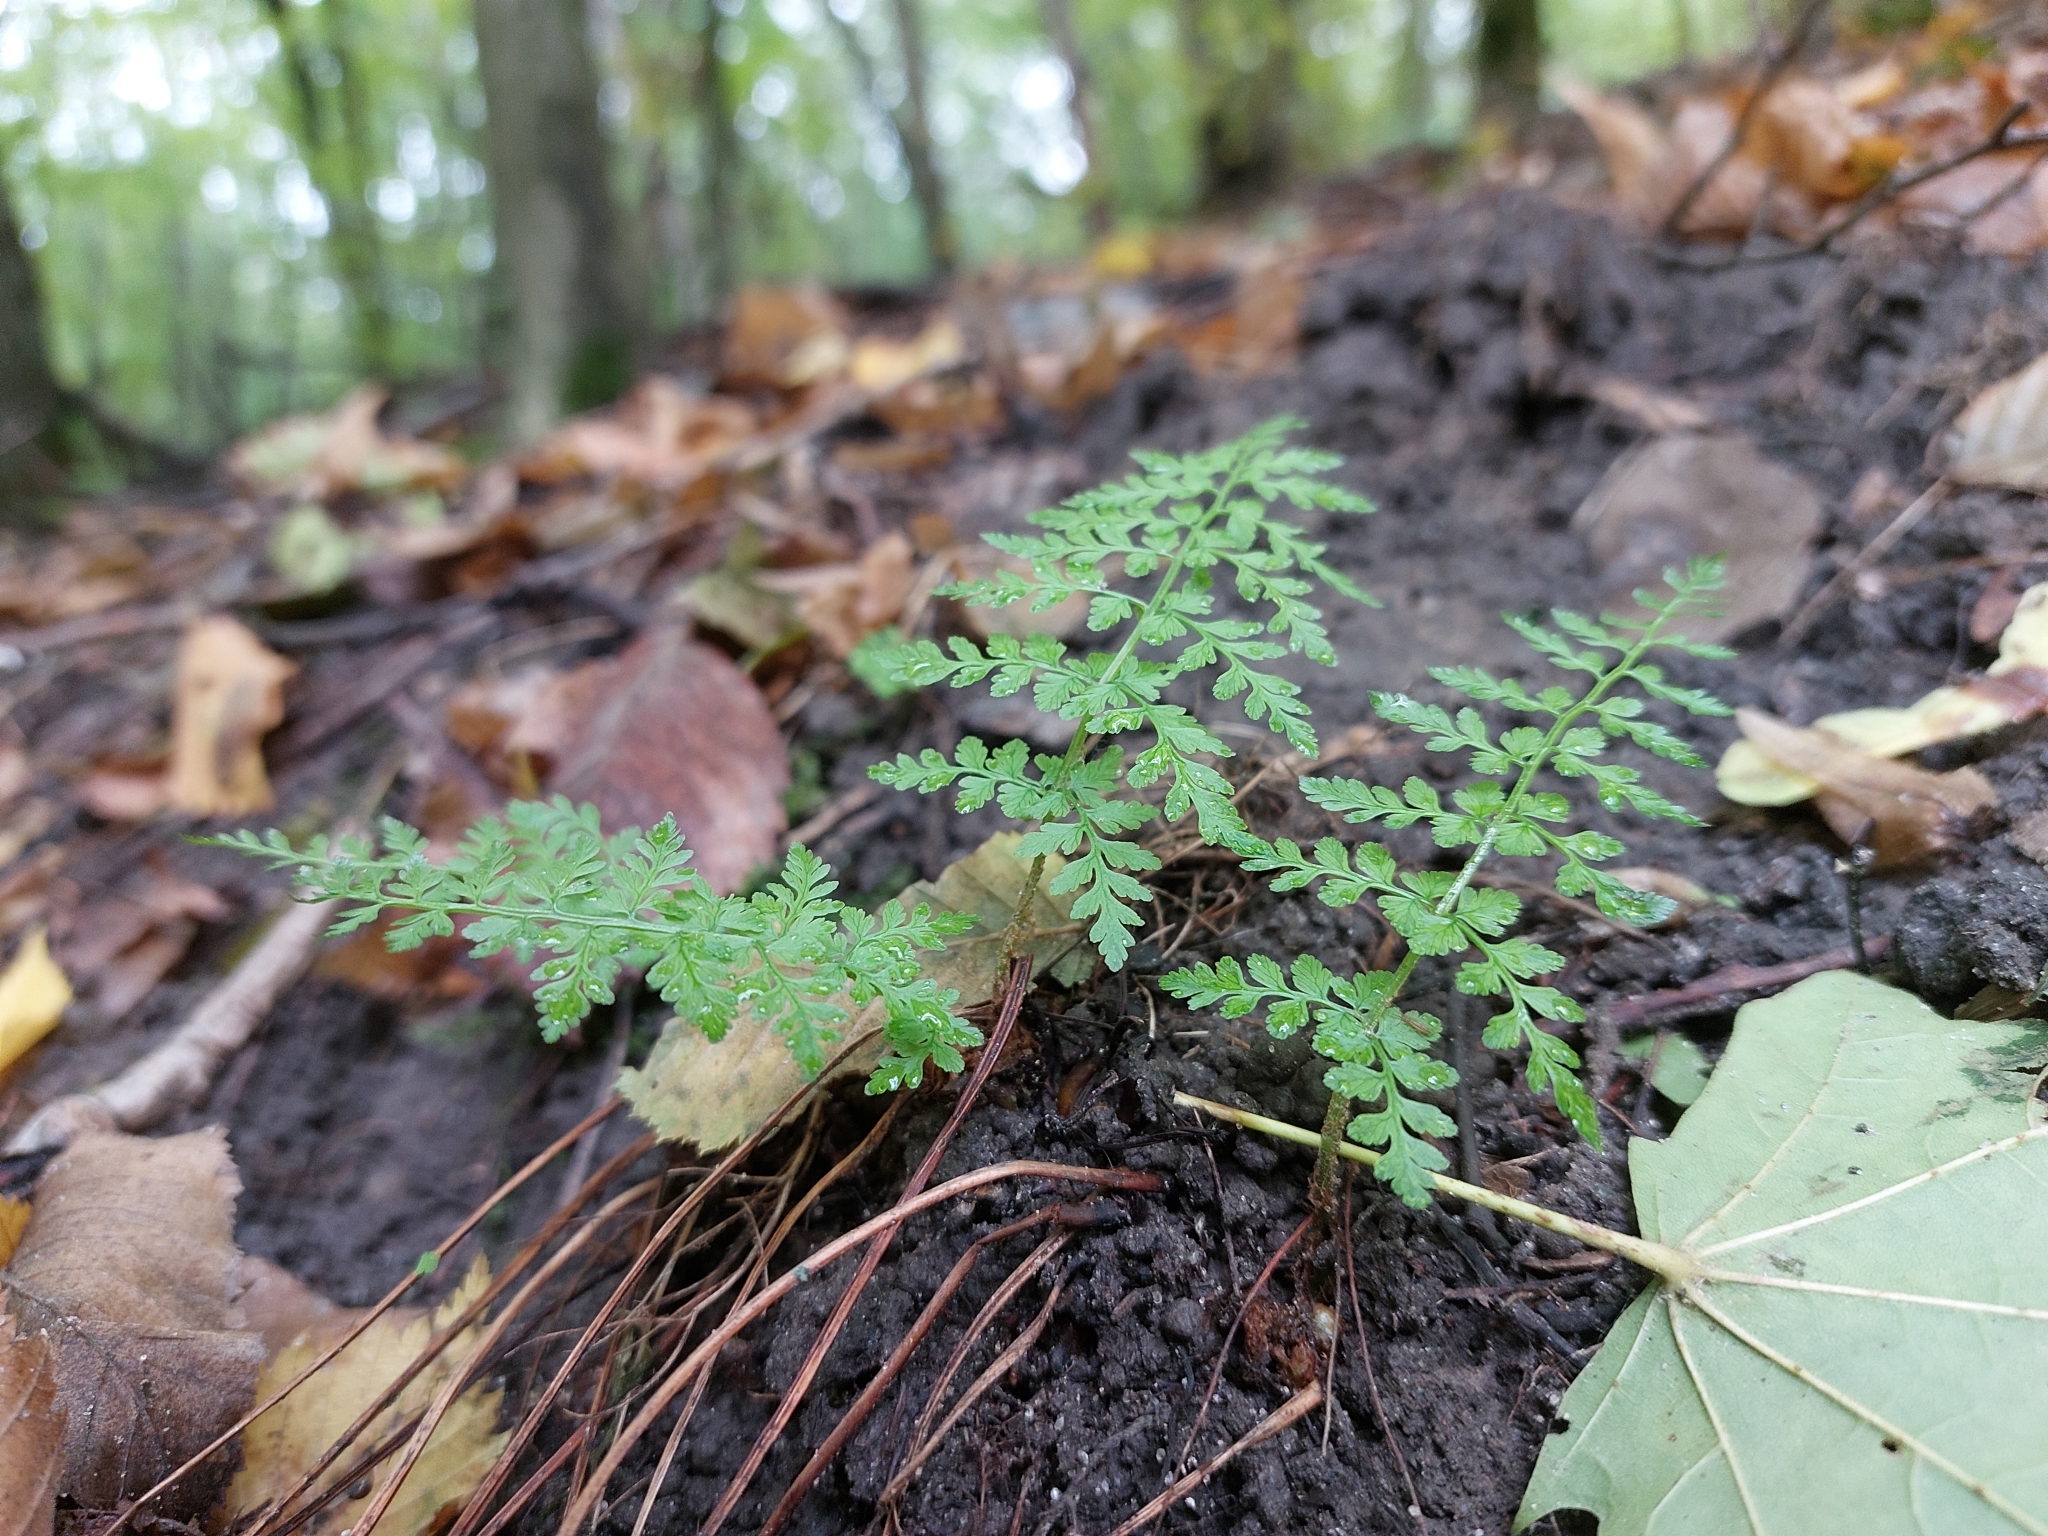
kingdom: Plantae
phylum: Tracheophyta
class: Polypodiopsida
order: Polypodiales
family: Cystopteridaceae
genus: Cystopteris
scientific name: Cystopteris fragilis
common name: Brittle bladder fern
